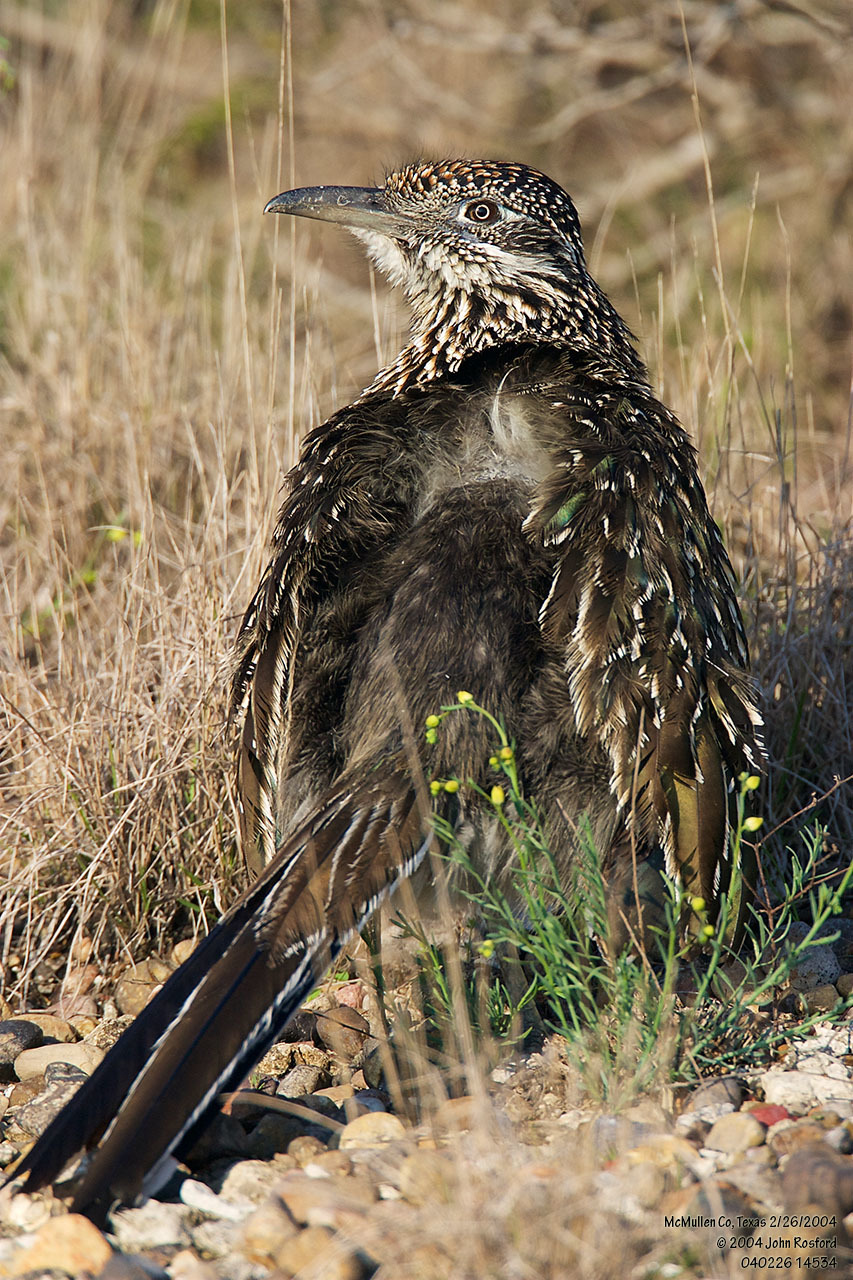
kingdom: Animalia
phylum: Chordata
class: Aves
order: Cuculiformes
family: Cuculidae
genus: Geococcyx
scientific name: Geococcyx californianus
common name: Greater roadrunner
